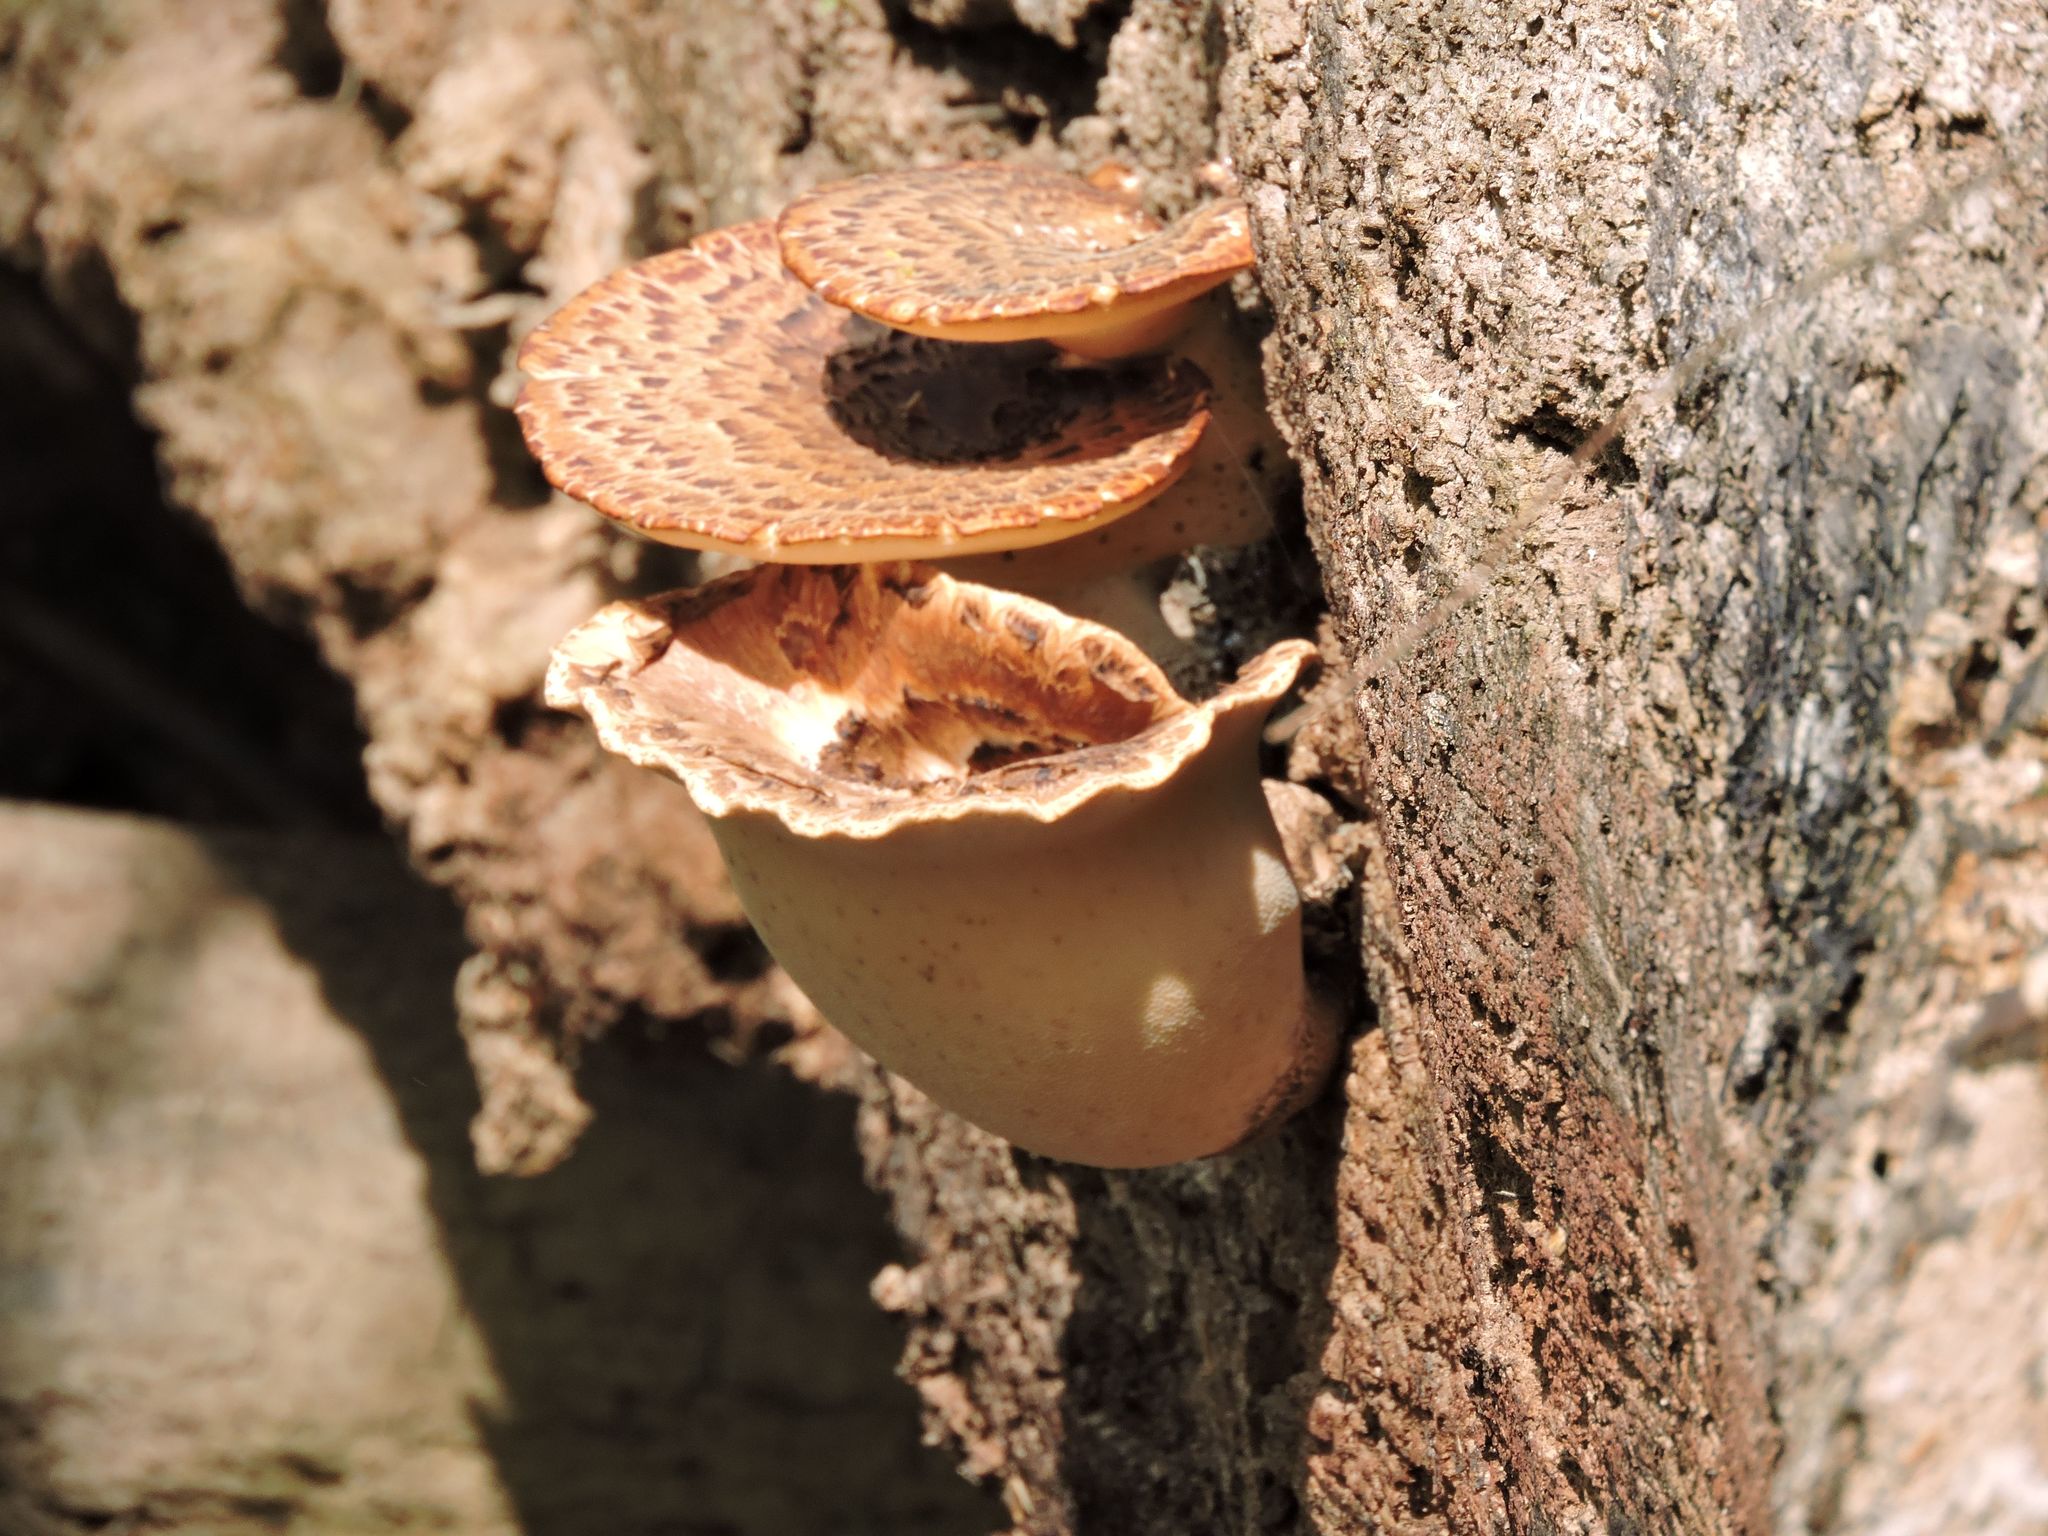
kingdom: Fungi
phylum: Basidiomycota
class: Agaricomycetes
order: Polyporales
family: Polyporaceae
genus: Cerioporus
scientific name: Cerioporus squamosus
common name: Dryad's saddle
